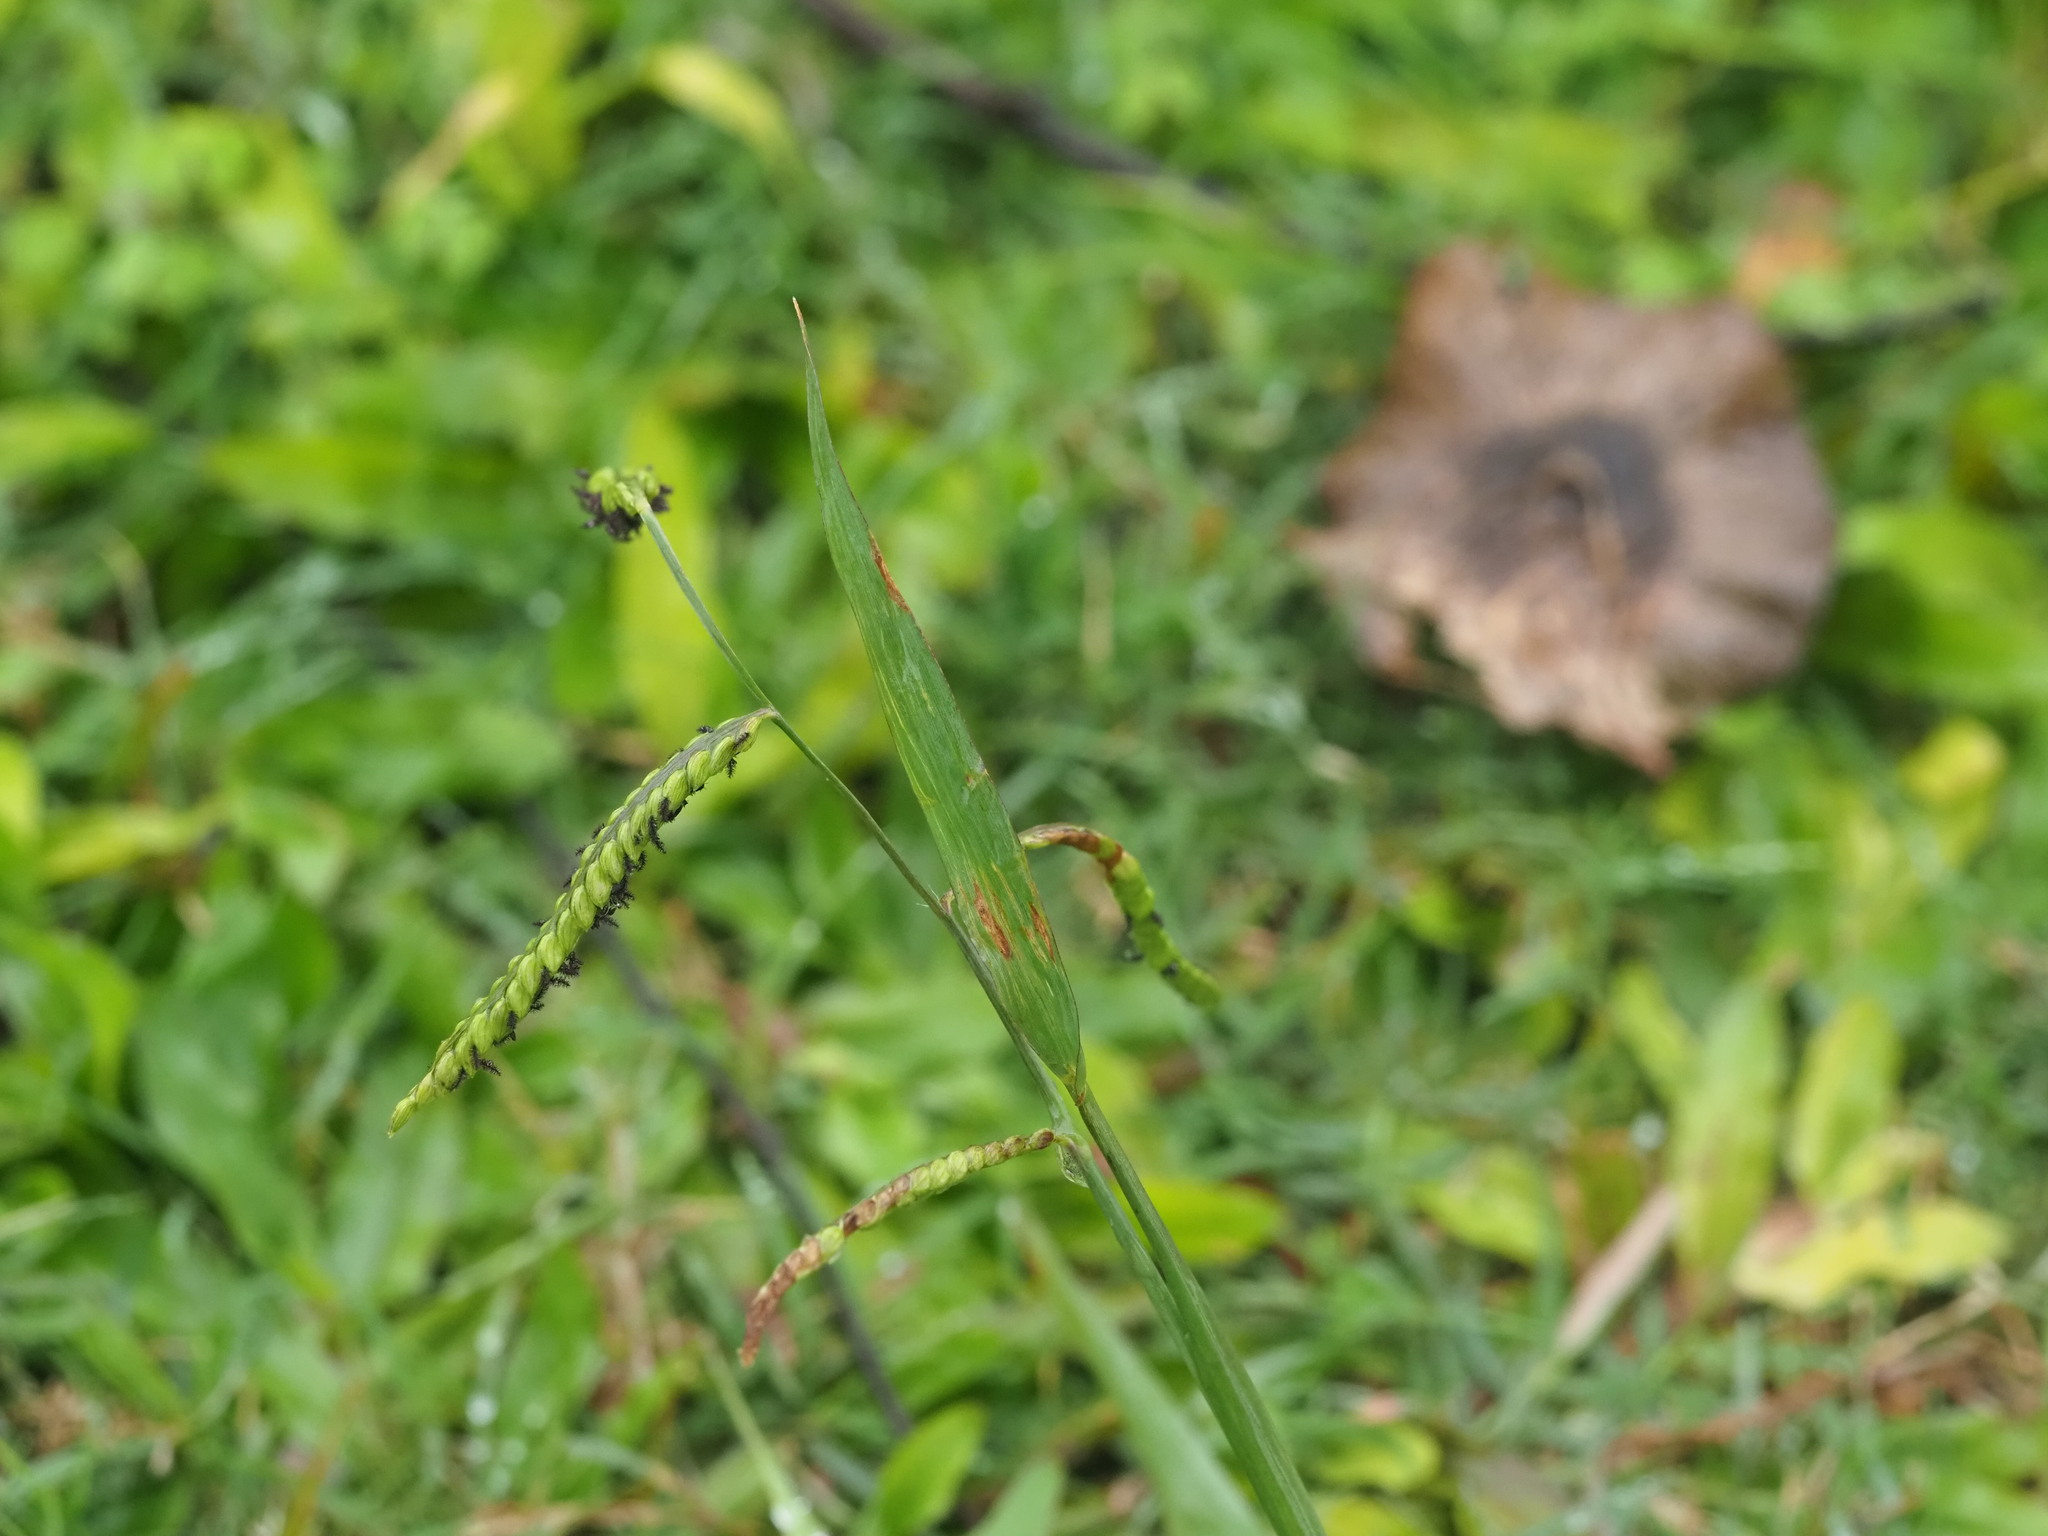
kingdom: Plantae
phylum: Tracheophyta
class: Liliopsida
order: Poales
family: Poaceae
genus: Paspalum
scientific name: Paspalum dilatatum
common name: Dallisgrass
